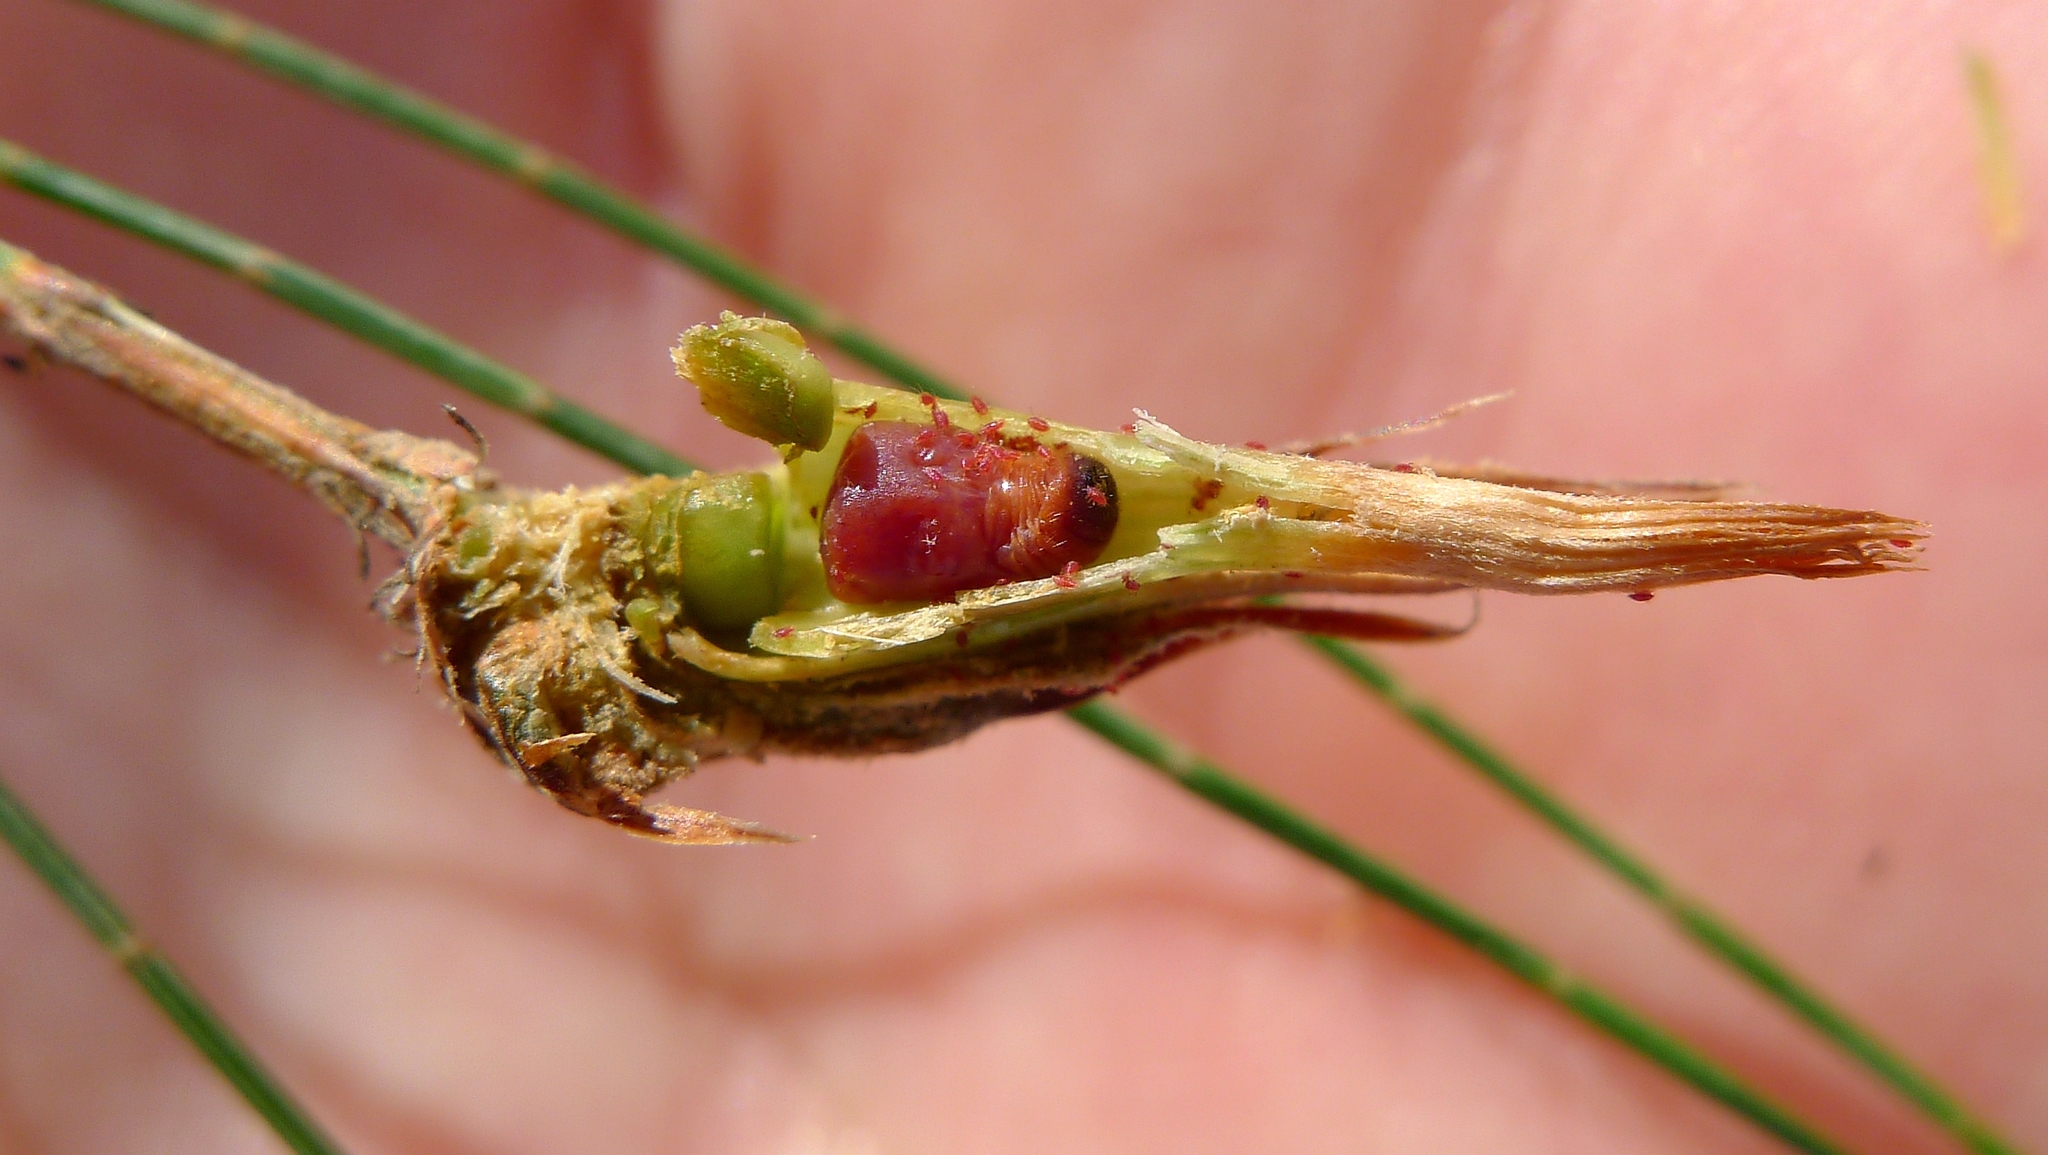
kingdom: Animalia
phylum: Arthropoda
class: Insecta
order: Hemiptera
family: Eriococcidae
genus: Cylindrococcus
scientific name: Cylindrococcus spiniferus
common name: Casuarina gall
